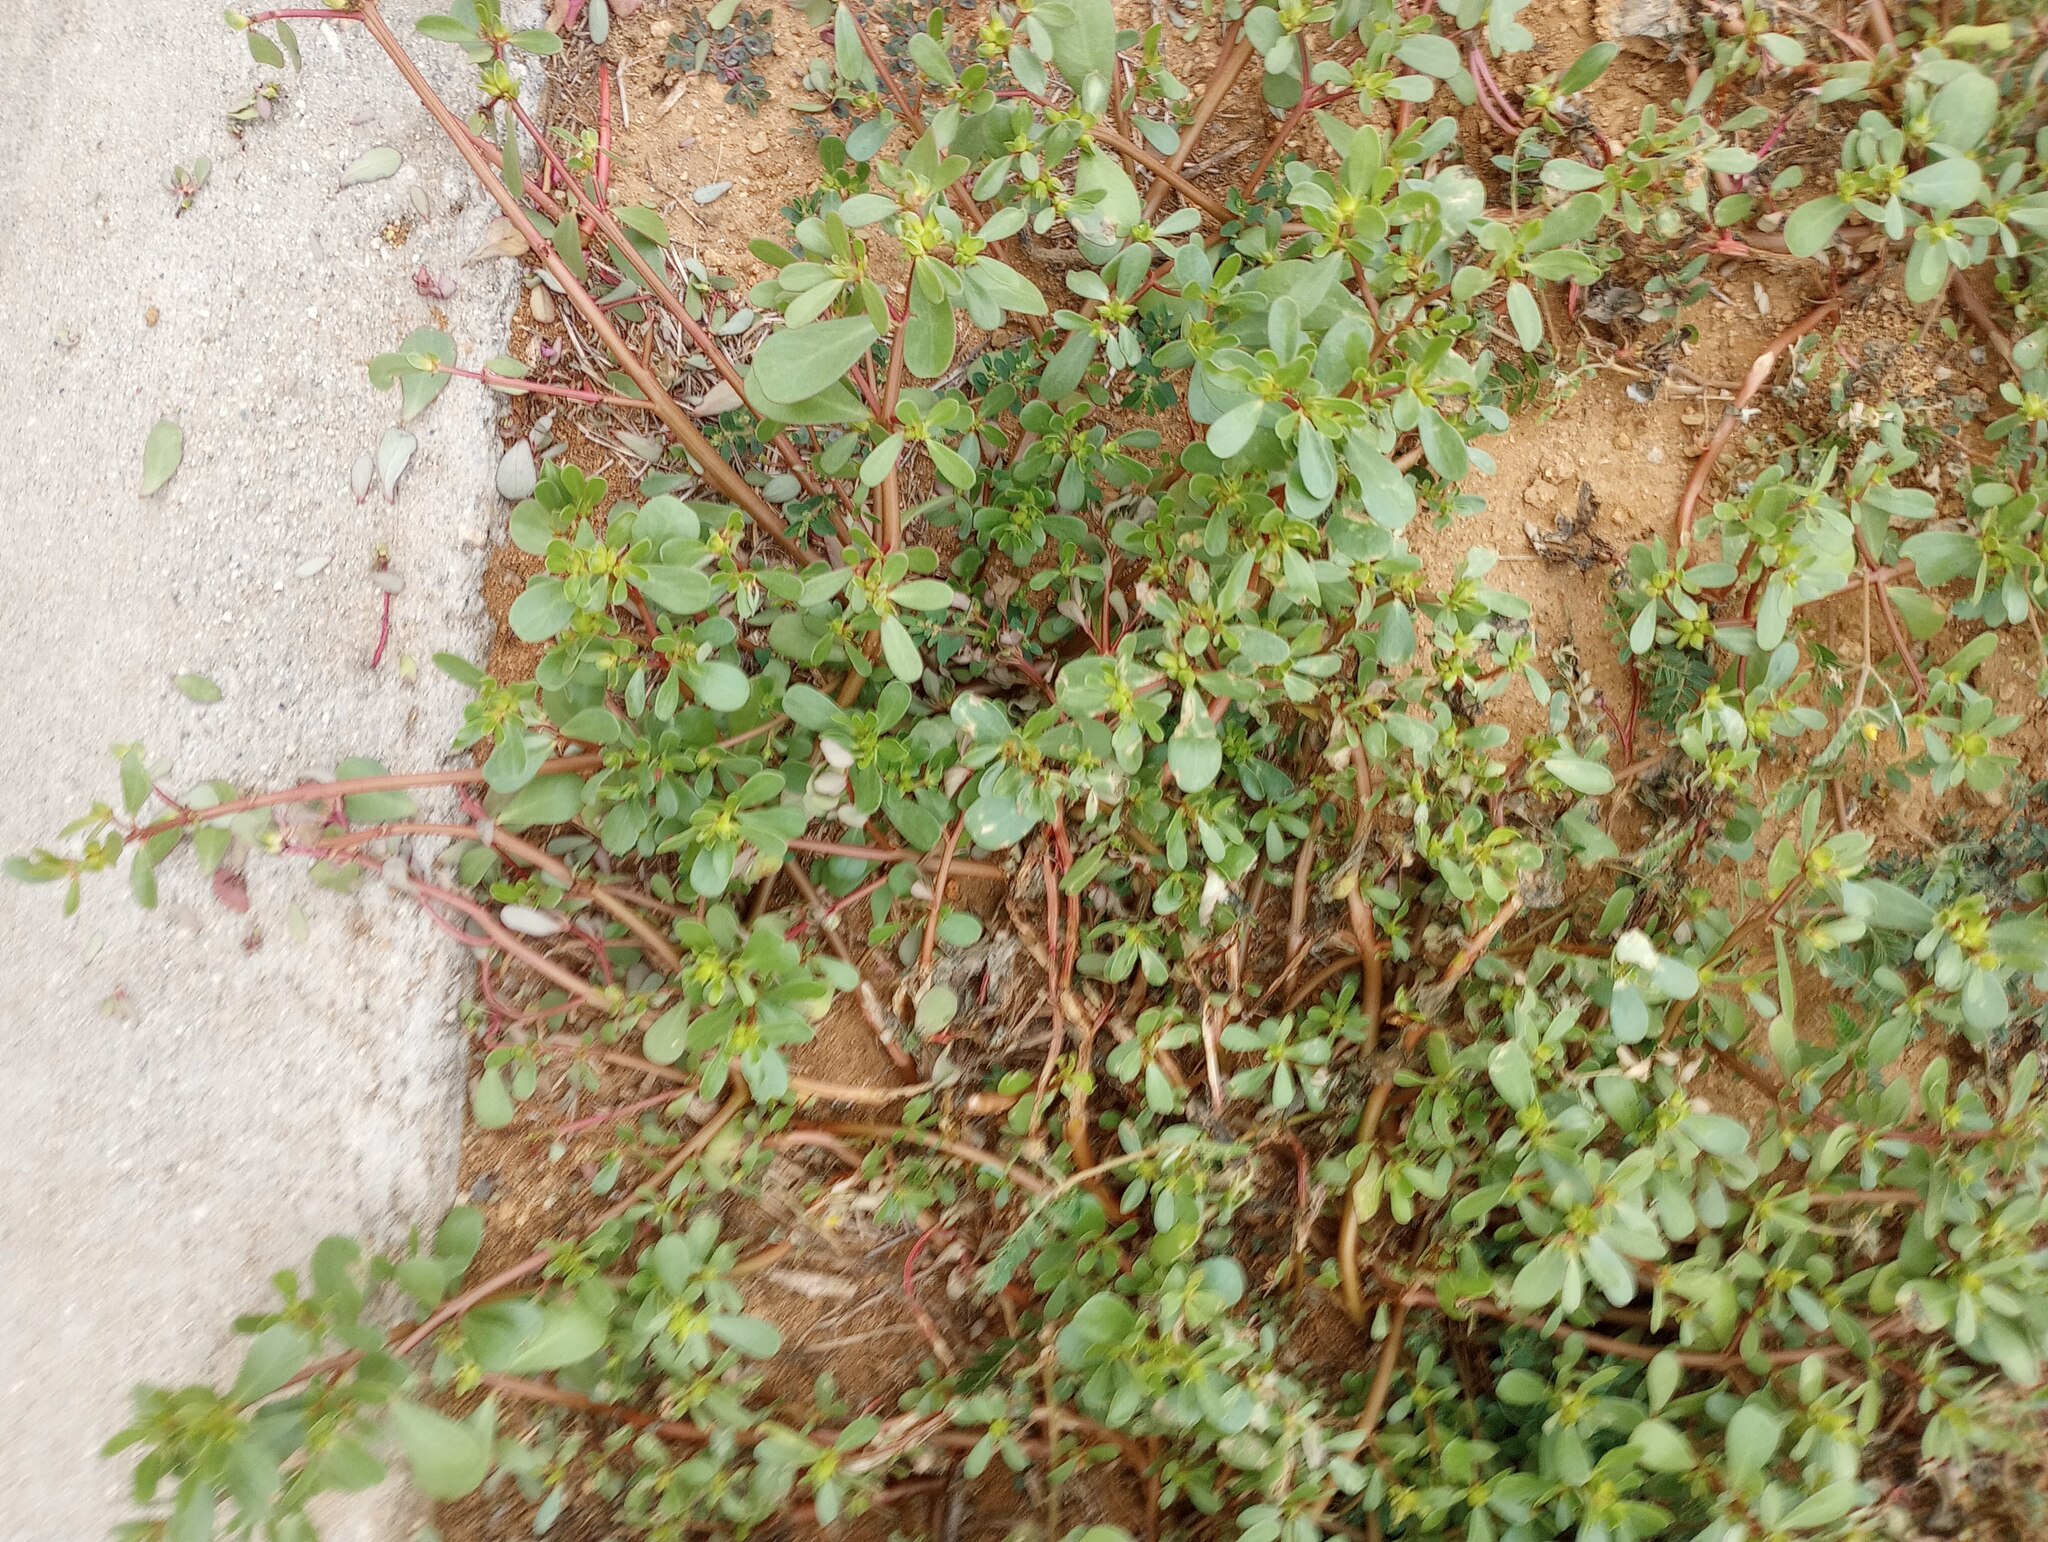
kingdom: Plantae
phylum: Tracheophyta
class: Magnoliopsida
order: Caryophyllales
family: Portulacaceae
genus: Portulaca
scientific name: Portulaca oleracea
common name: Common purslane
